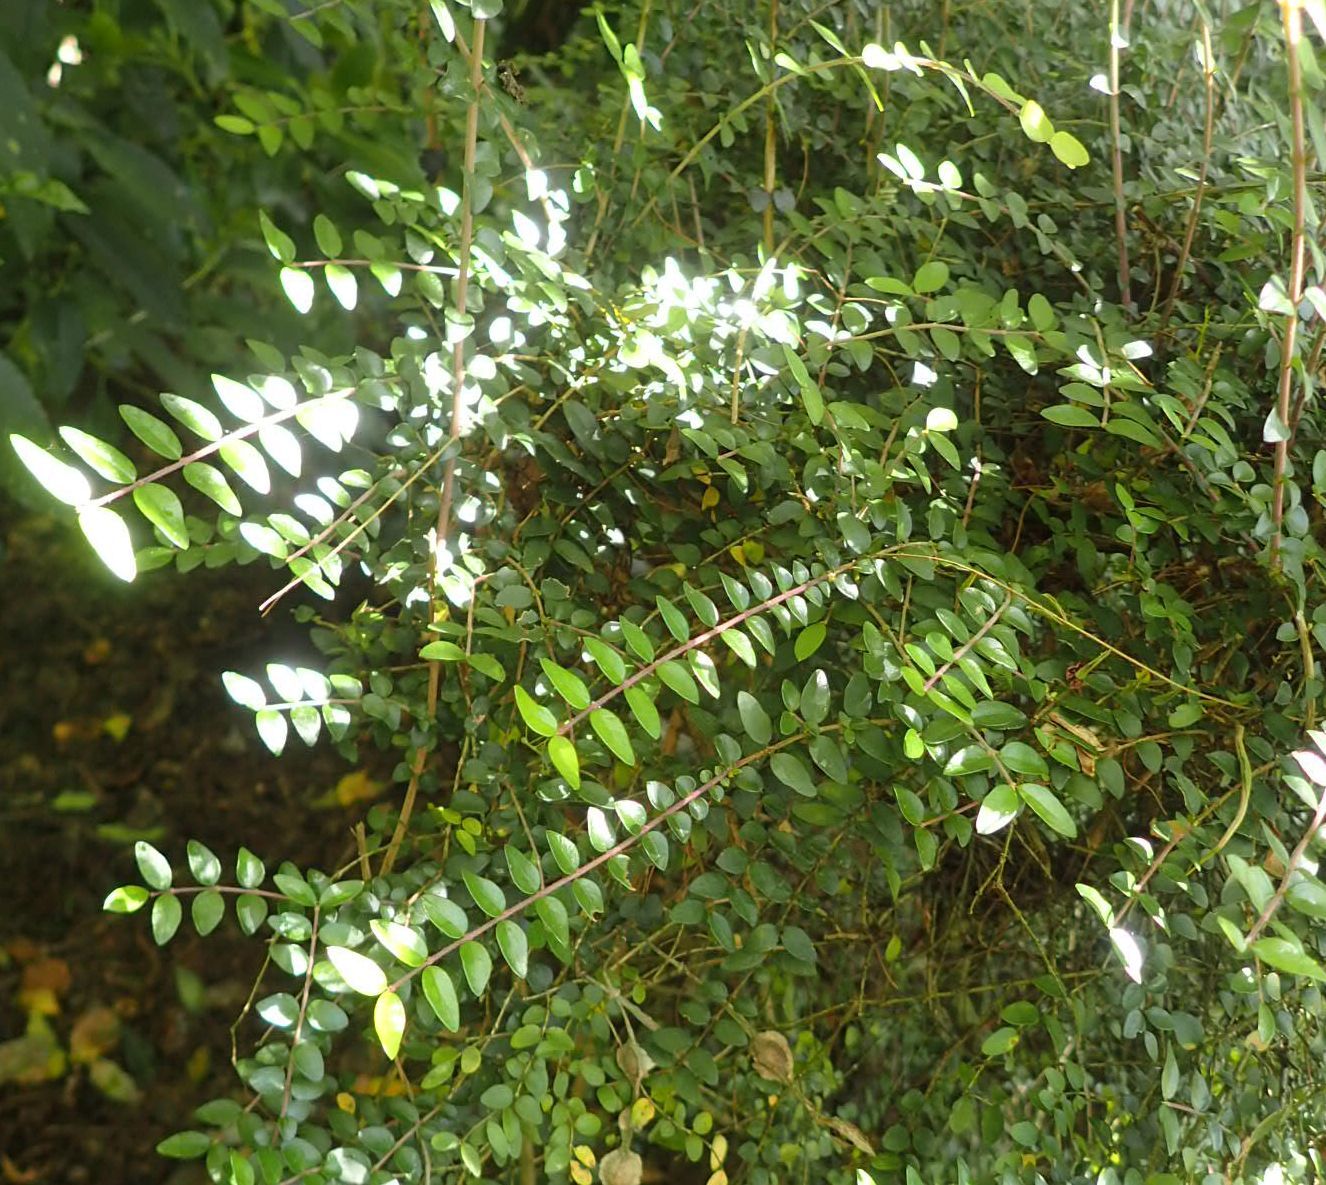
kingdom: Plantae
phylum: Tracheophyta
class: Magnoliopsida
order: Dipsacales
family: Caprifoliaceae
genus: Lonicera
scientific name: Lonicera pileata
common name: Box-leaved honeysuckle
